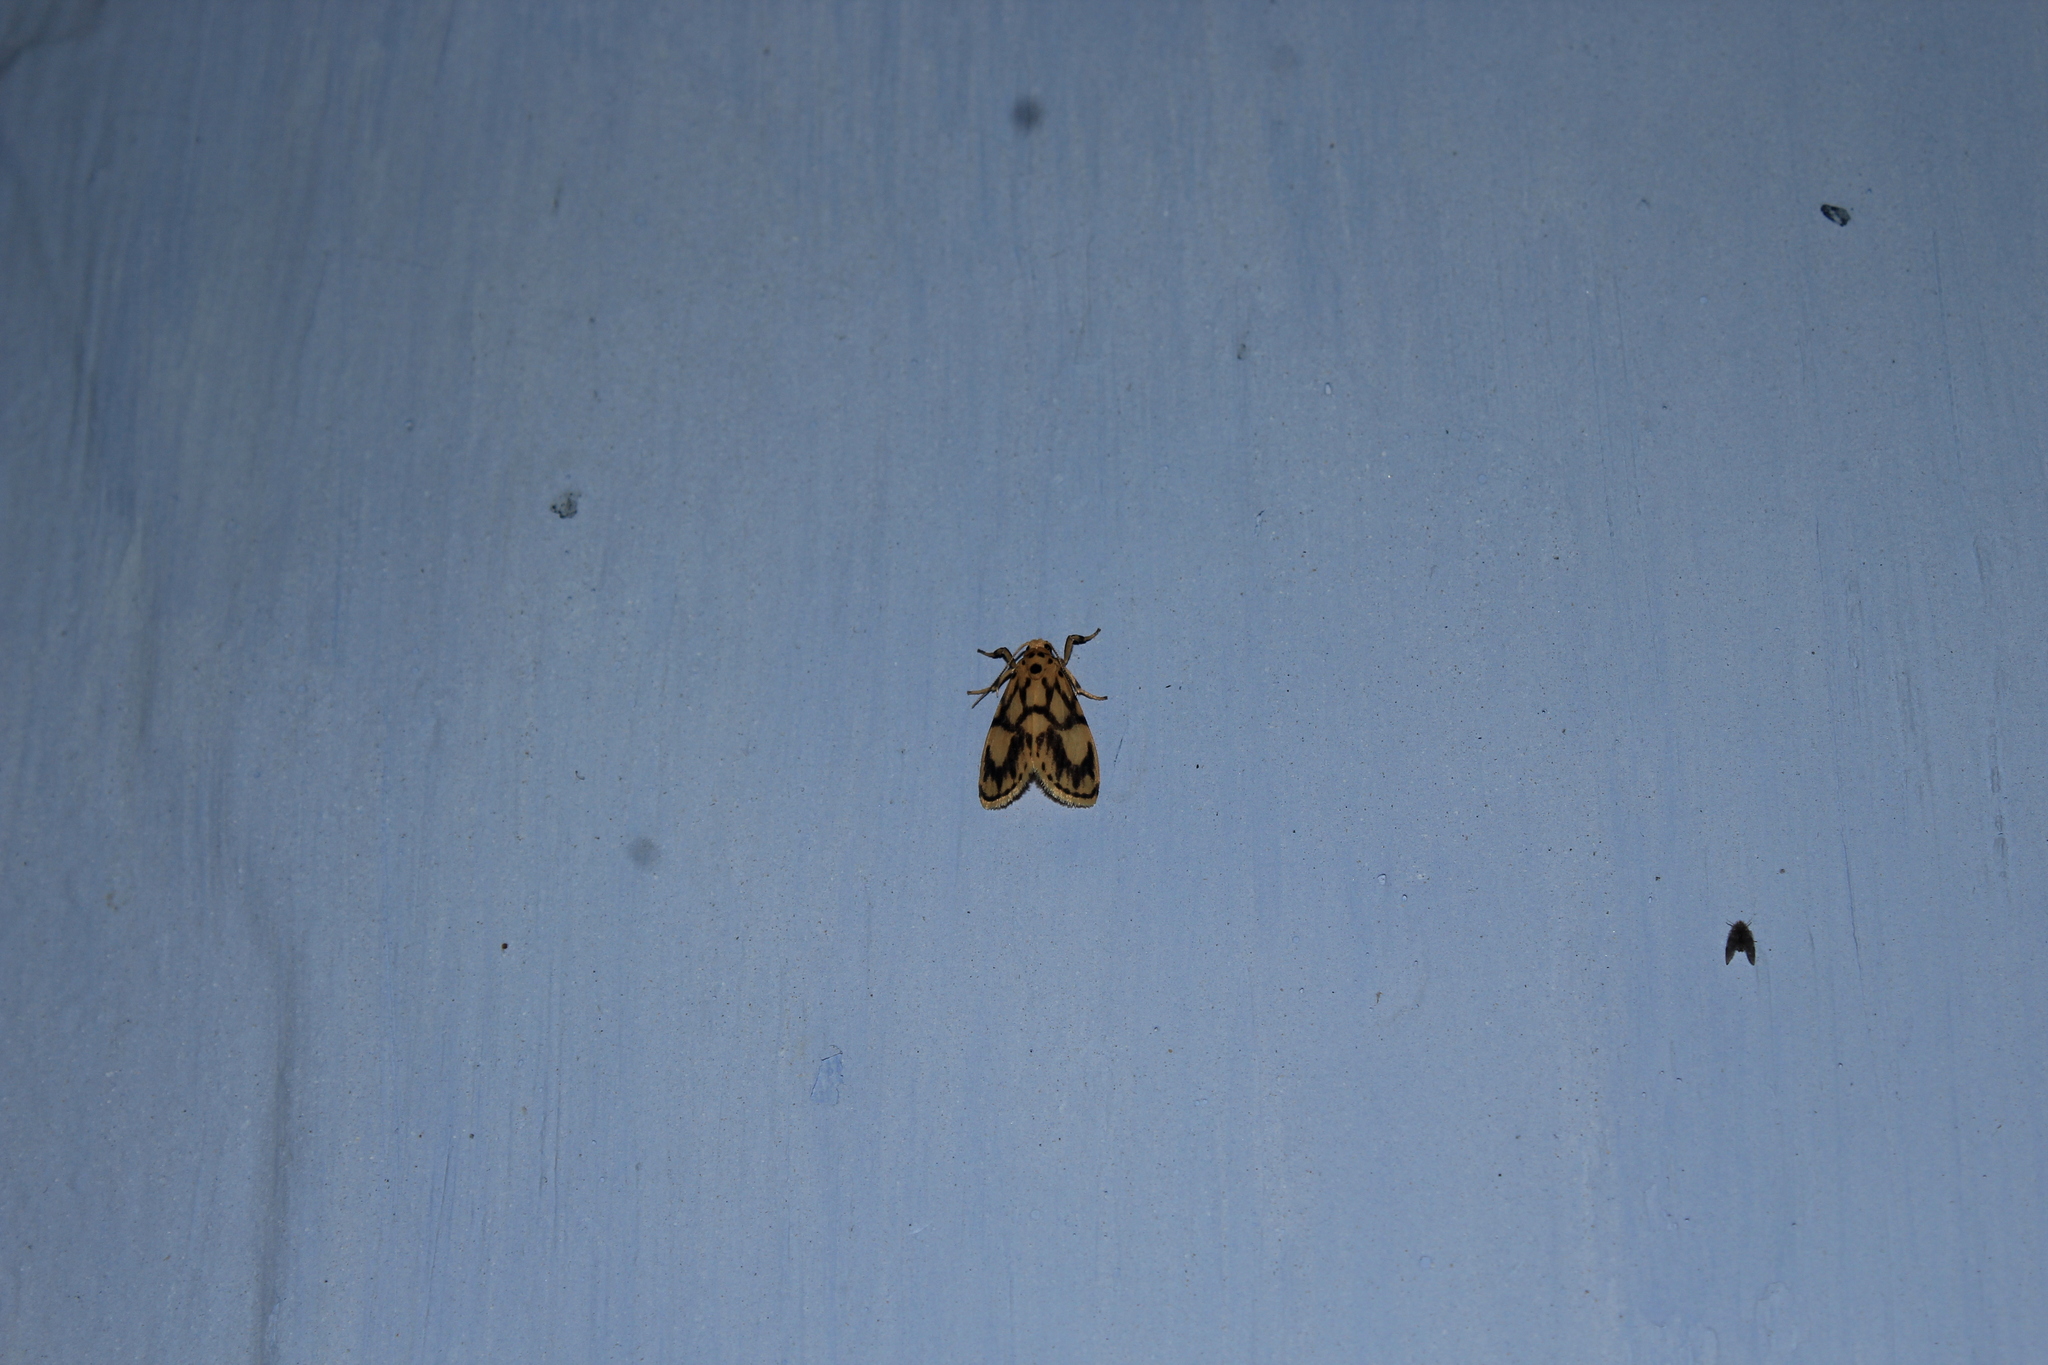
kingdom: Animalia
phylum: Arthropoda
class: Insecta
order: Lepidoptera
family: Erebidae
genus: Miltochrista
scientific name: Miltochrista conjunctana
